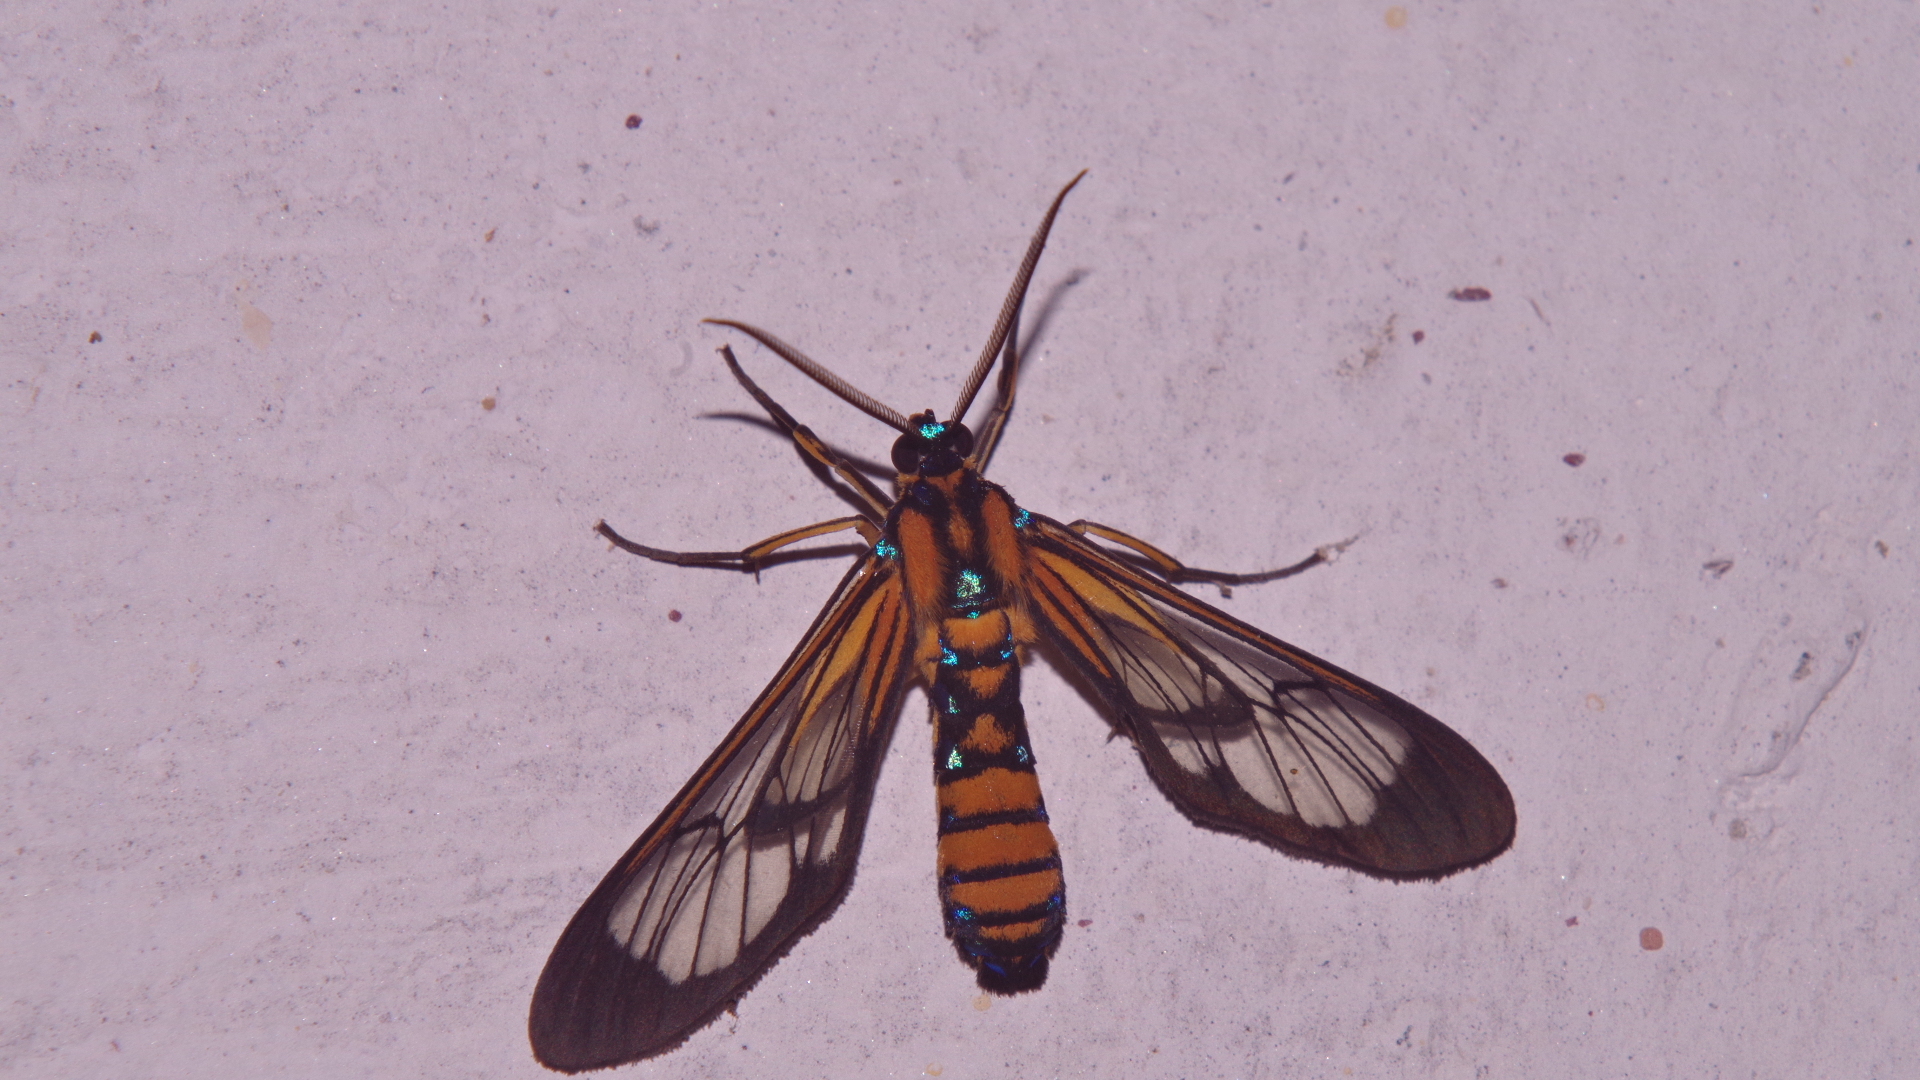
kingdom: Animalia
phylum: Arthropoda
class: Insecta
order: Lepidoptera
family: Erebidae
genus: Cosmosoma
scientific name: Cosmosoma tigris
